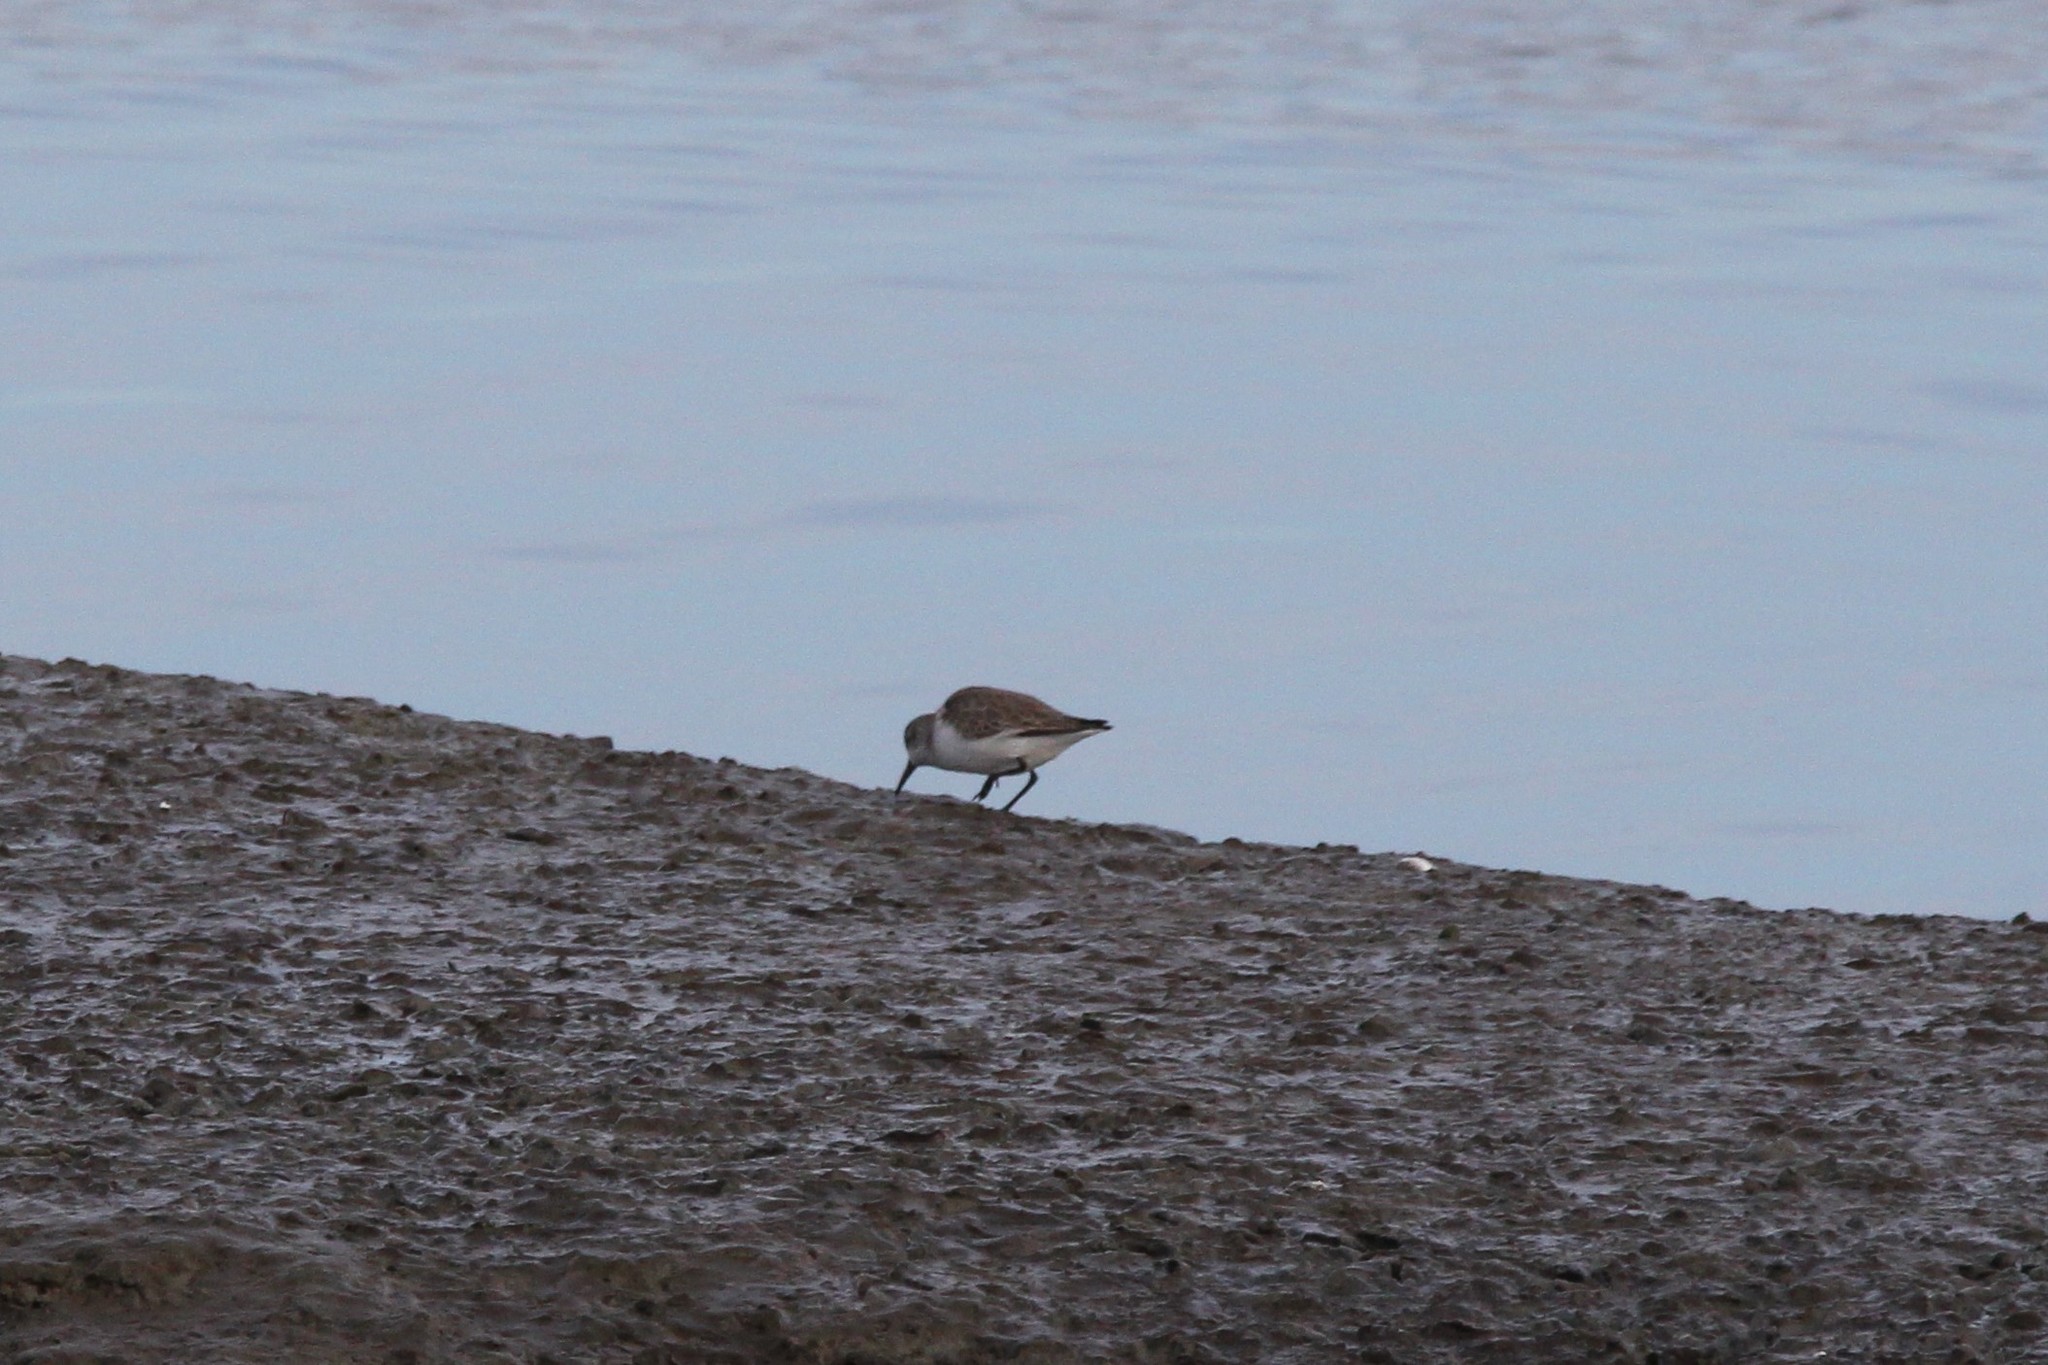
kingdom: Animalia
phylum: Chordata
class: Aves
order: Charadriiformes
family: Scolopacidae
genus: Calidris
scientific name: Calidris mauri
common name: Western sandpiper
